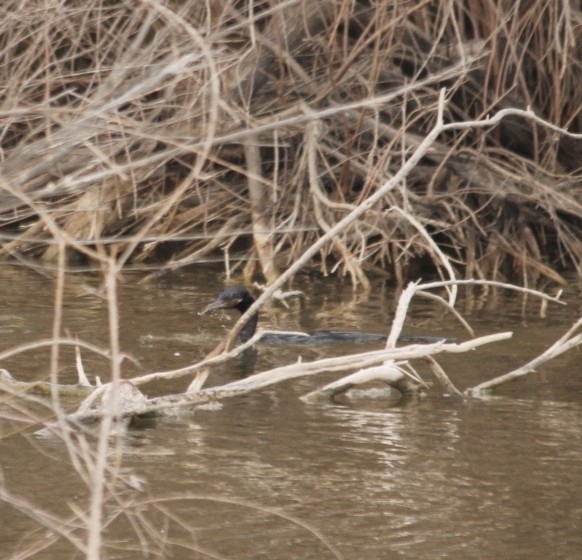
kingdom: Animalia
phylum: Chordata
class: Aves
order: Suliformes
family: Phalacrocoracidae
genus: Phalacrocorax
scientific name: Phalacrocorax brasilianus
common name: Neotropic cormorant
